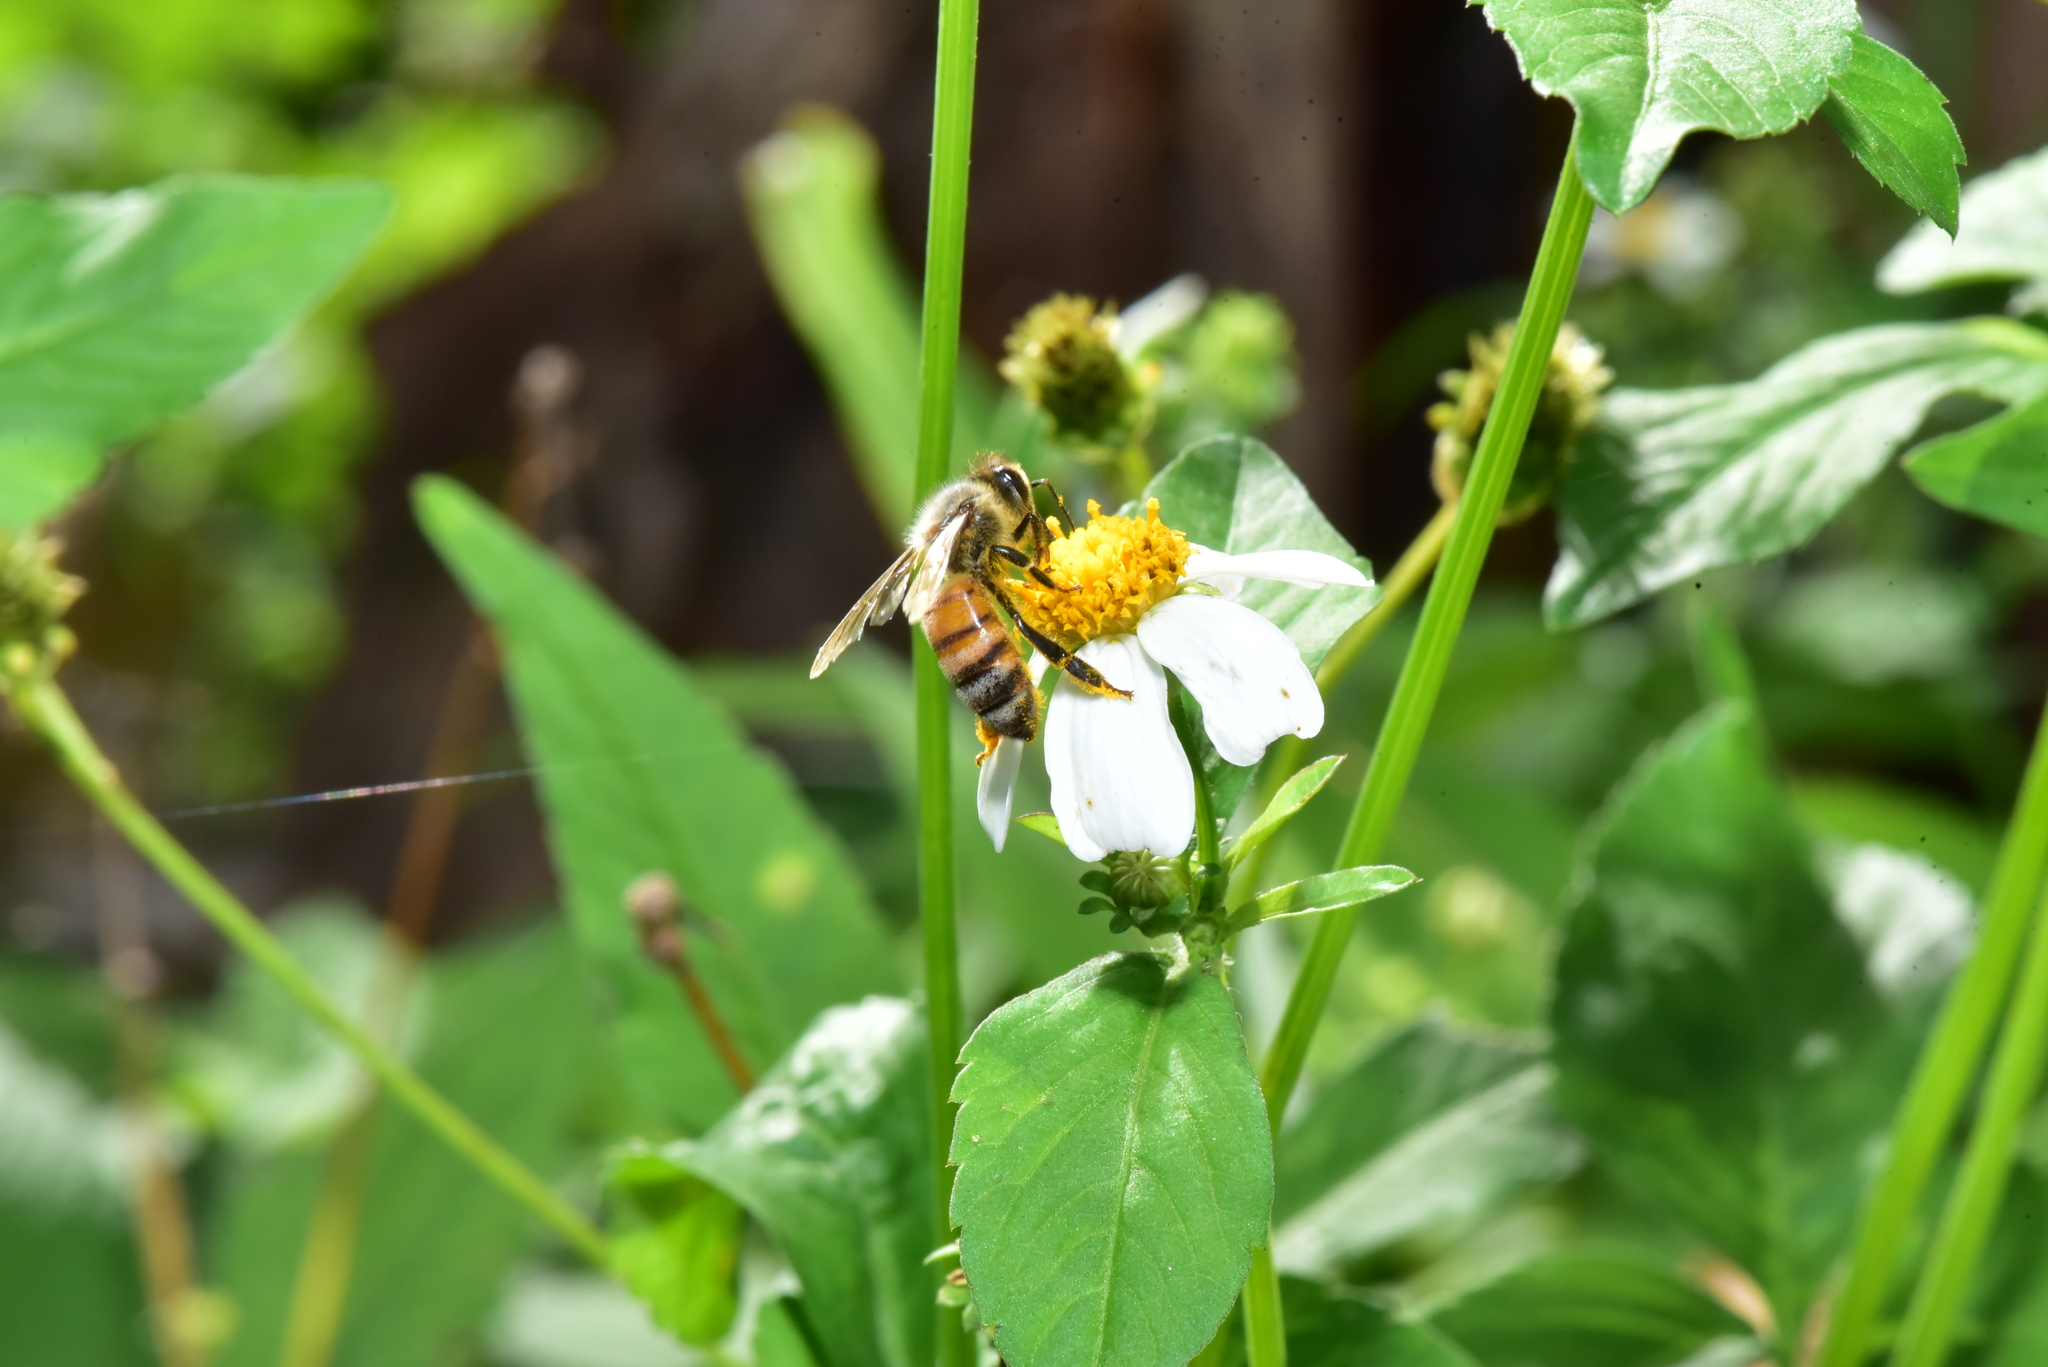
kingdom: Animalia
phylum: Arthropoda
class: Insecta
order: Hymenoptera
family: Apidae
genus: Apis
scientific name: Apis mellifera
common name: Honey bee
